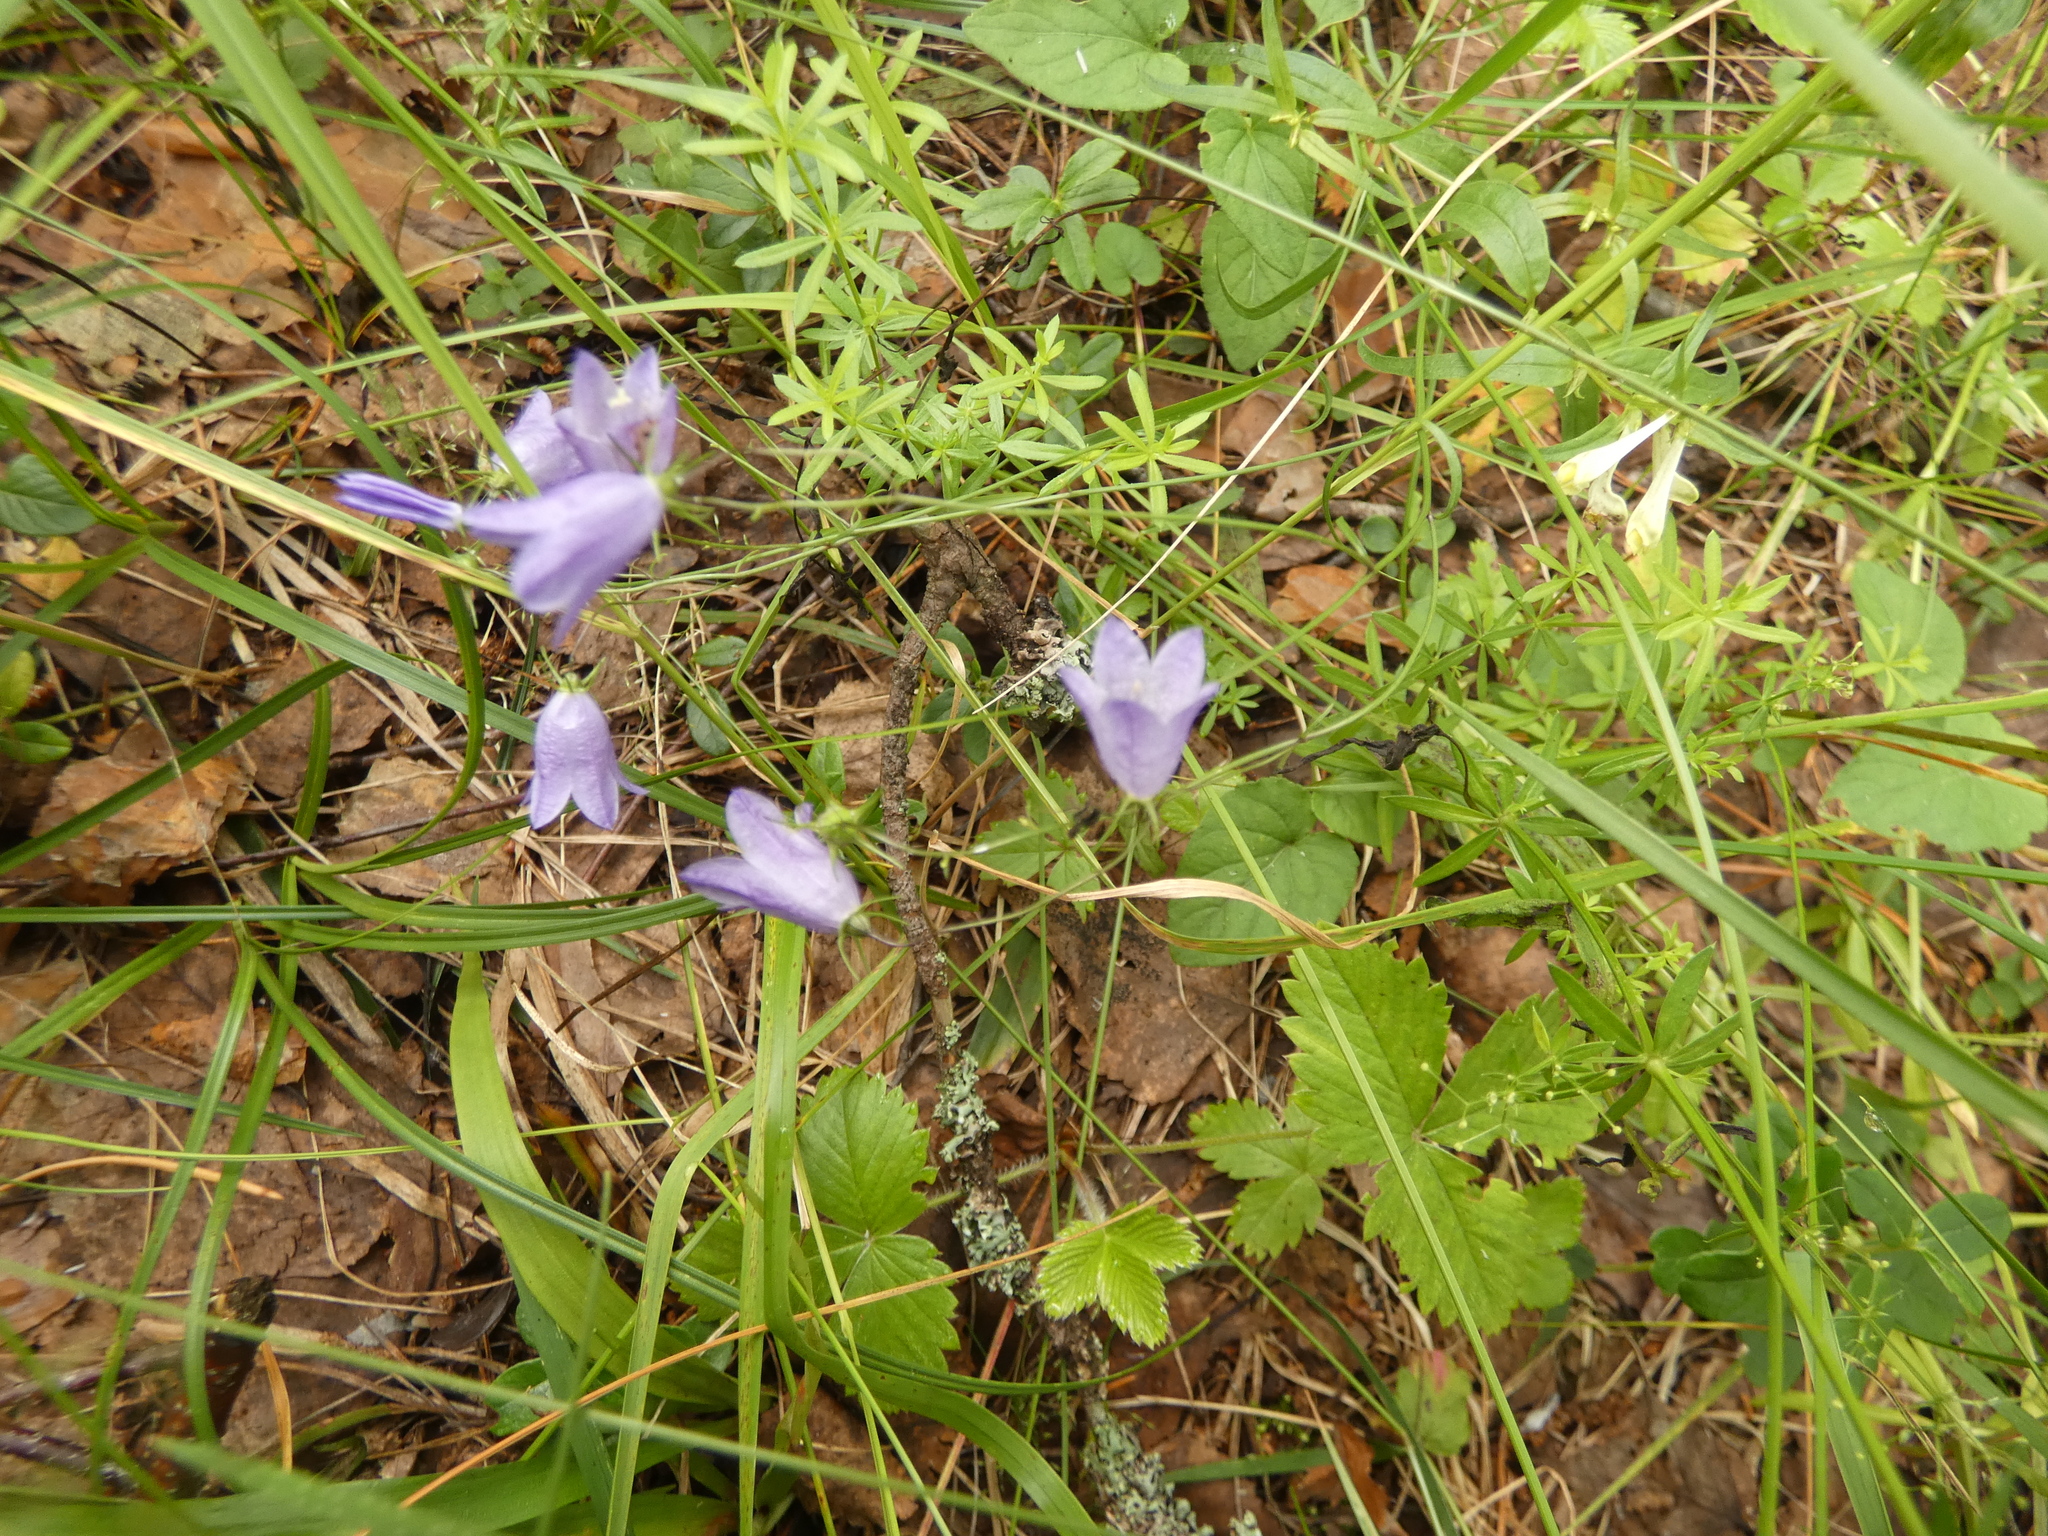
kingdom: Plantae
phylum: Tracheophyta
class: Magnoliopsida
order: Asterales
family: Campanulaceae
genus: Campanula
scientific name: Campanula rotundifolia
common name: Harebell
